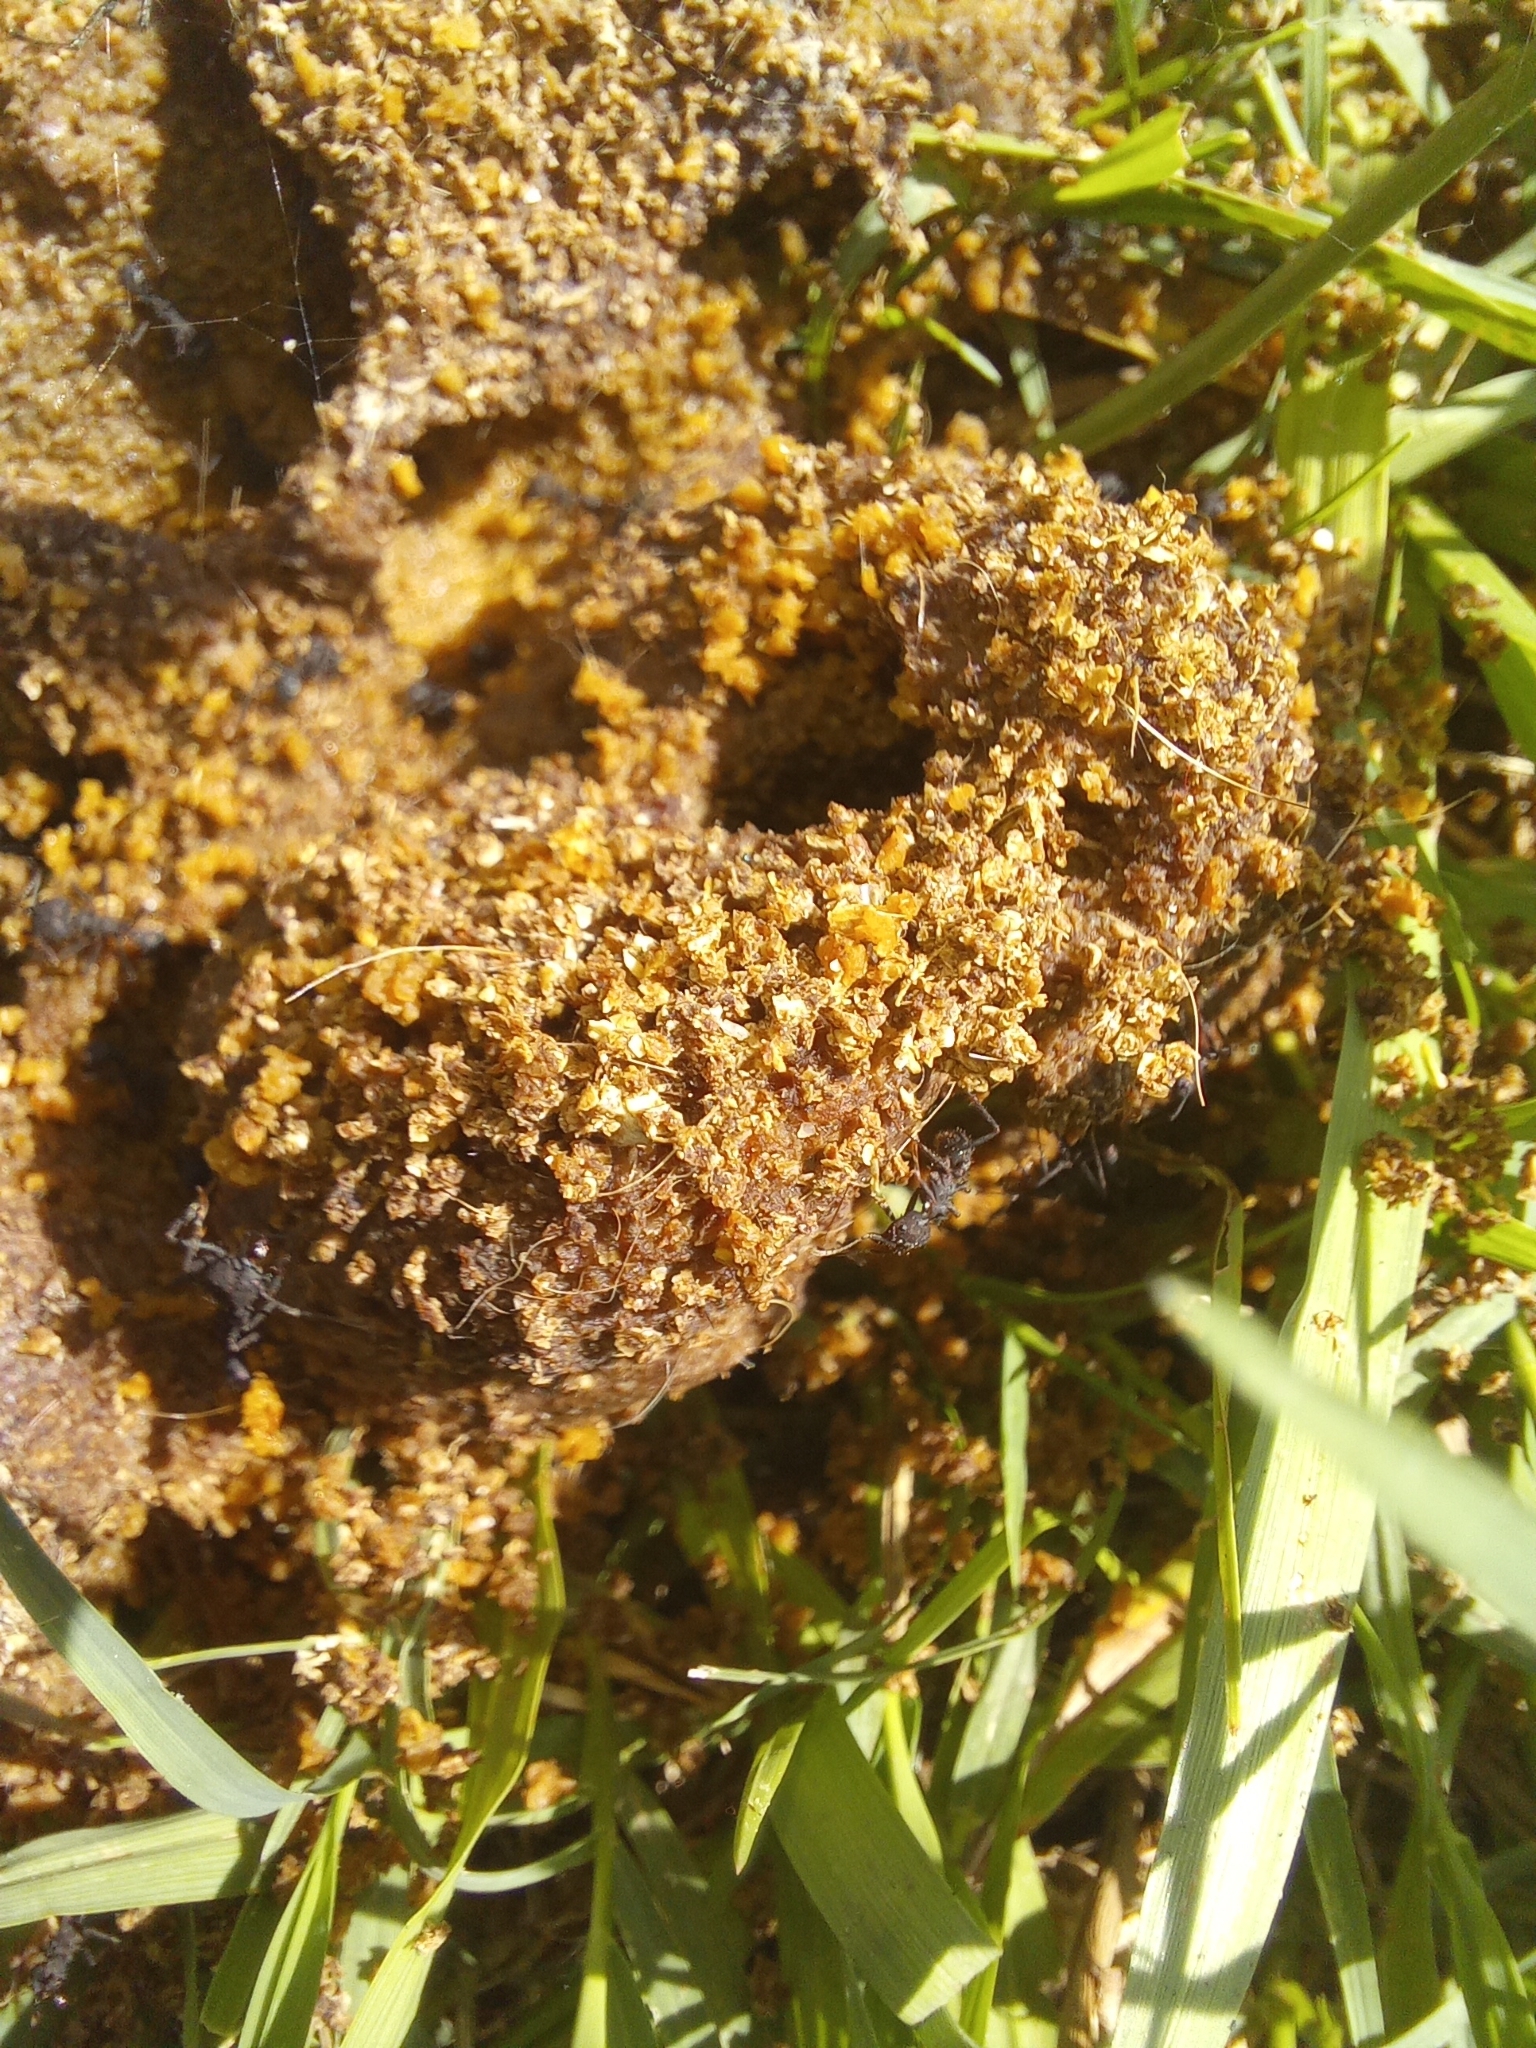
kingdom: Animalia
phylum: Arthropoda
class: Insecta
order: Hymenoptera
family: Formicidae
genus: Acromyrmex
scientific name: Acromyrmex lundii
